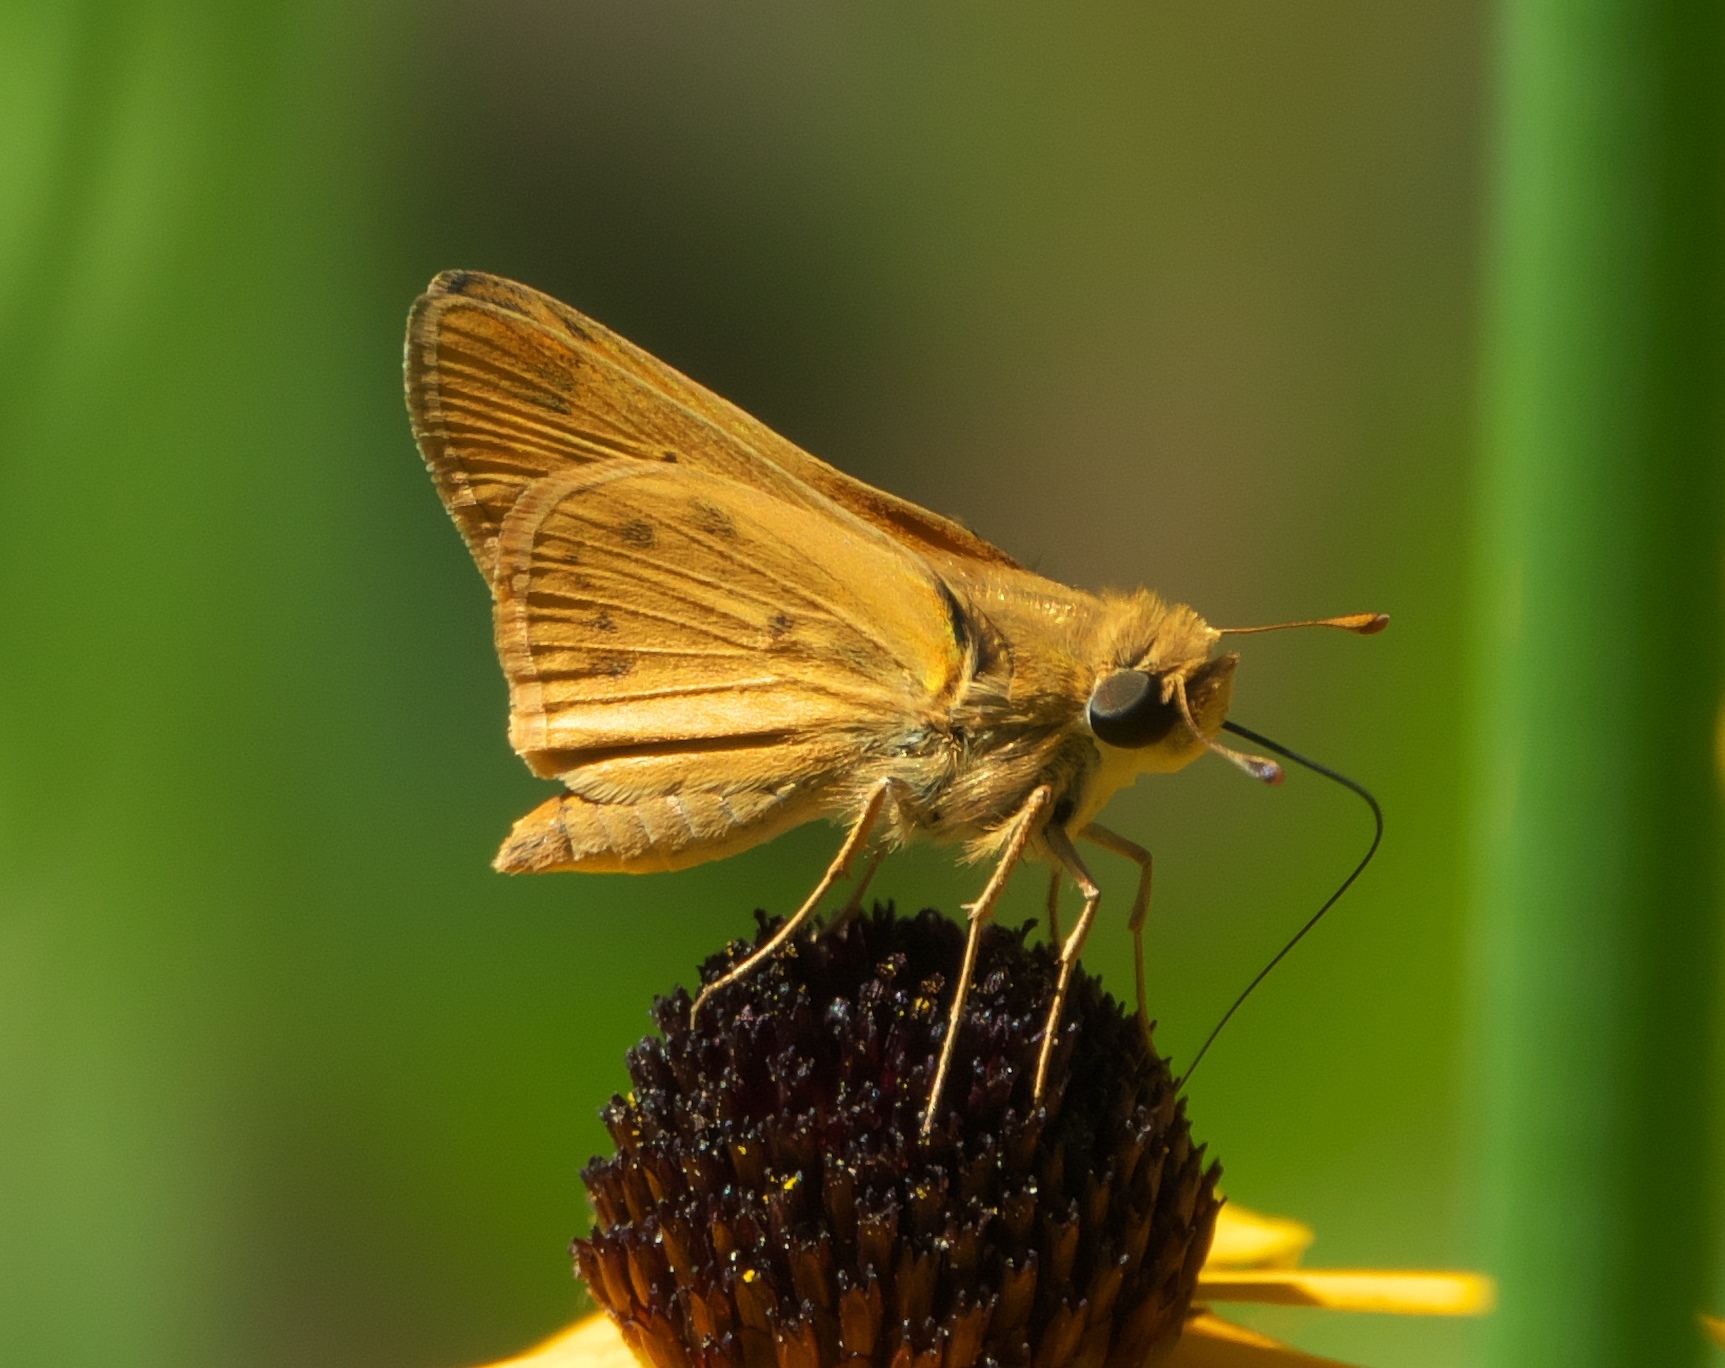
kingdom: Animalia
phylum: Arthropoda
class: Insecta
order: Lepidoptera
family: Hesperiidae
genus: Hylephila
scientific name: Hylephila phyleus
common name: Fiery skipper
